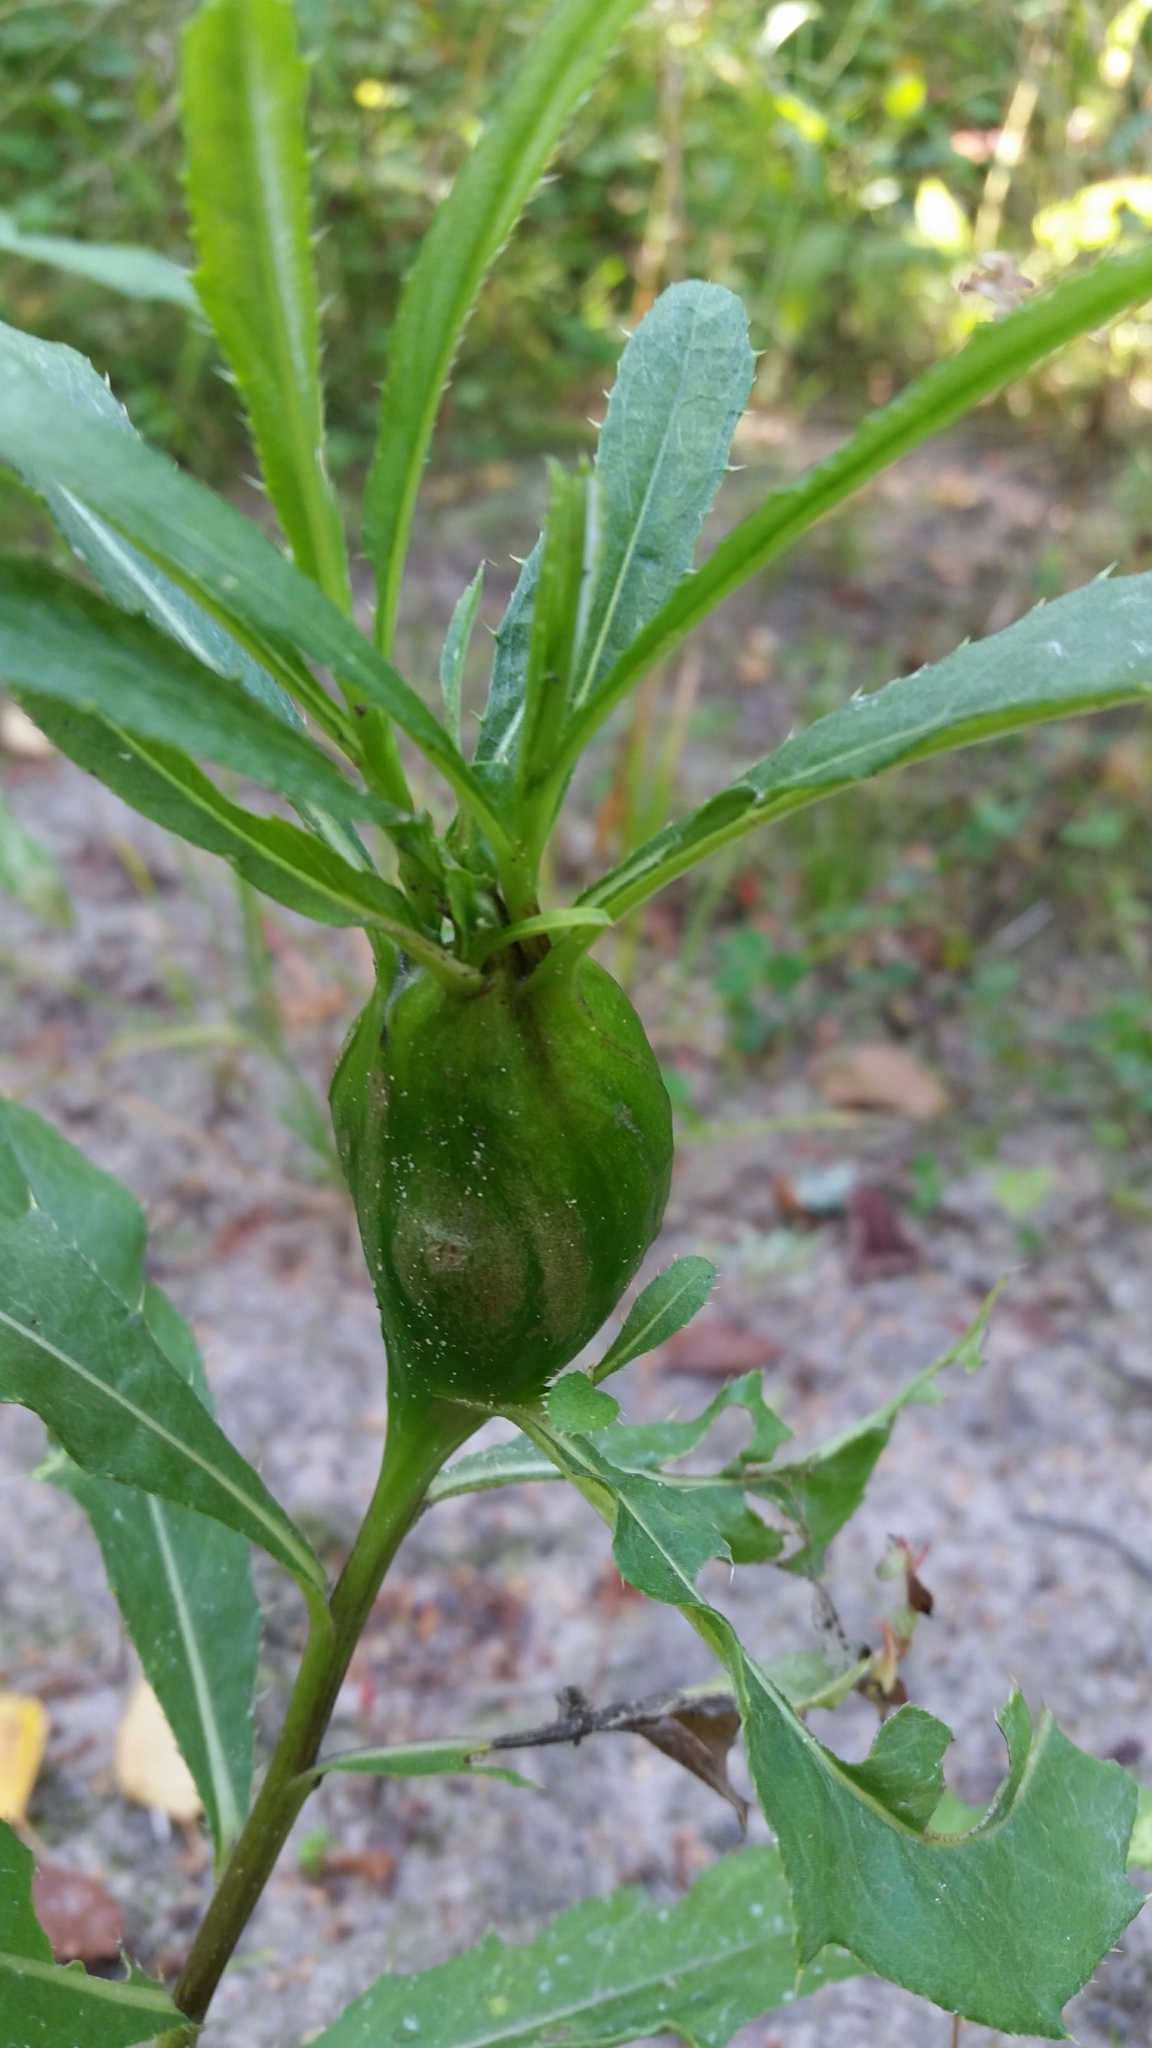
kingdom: Animalia
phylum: Arthropoda
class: Insecta
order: Diptera
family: Tephritidae
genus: Urophora
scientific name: Urophora cardui
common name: Fruit fly
